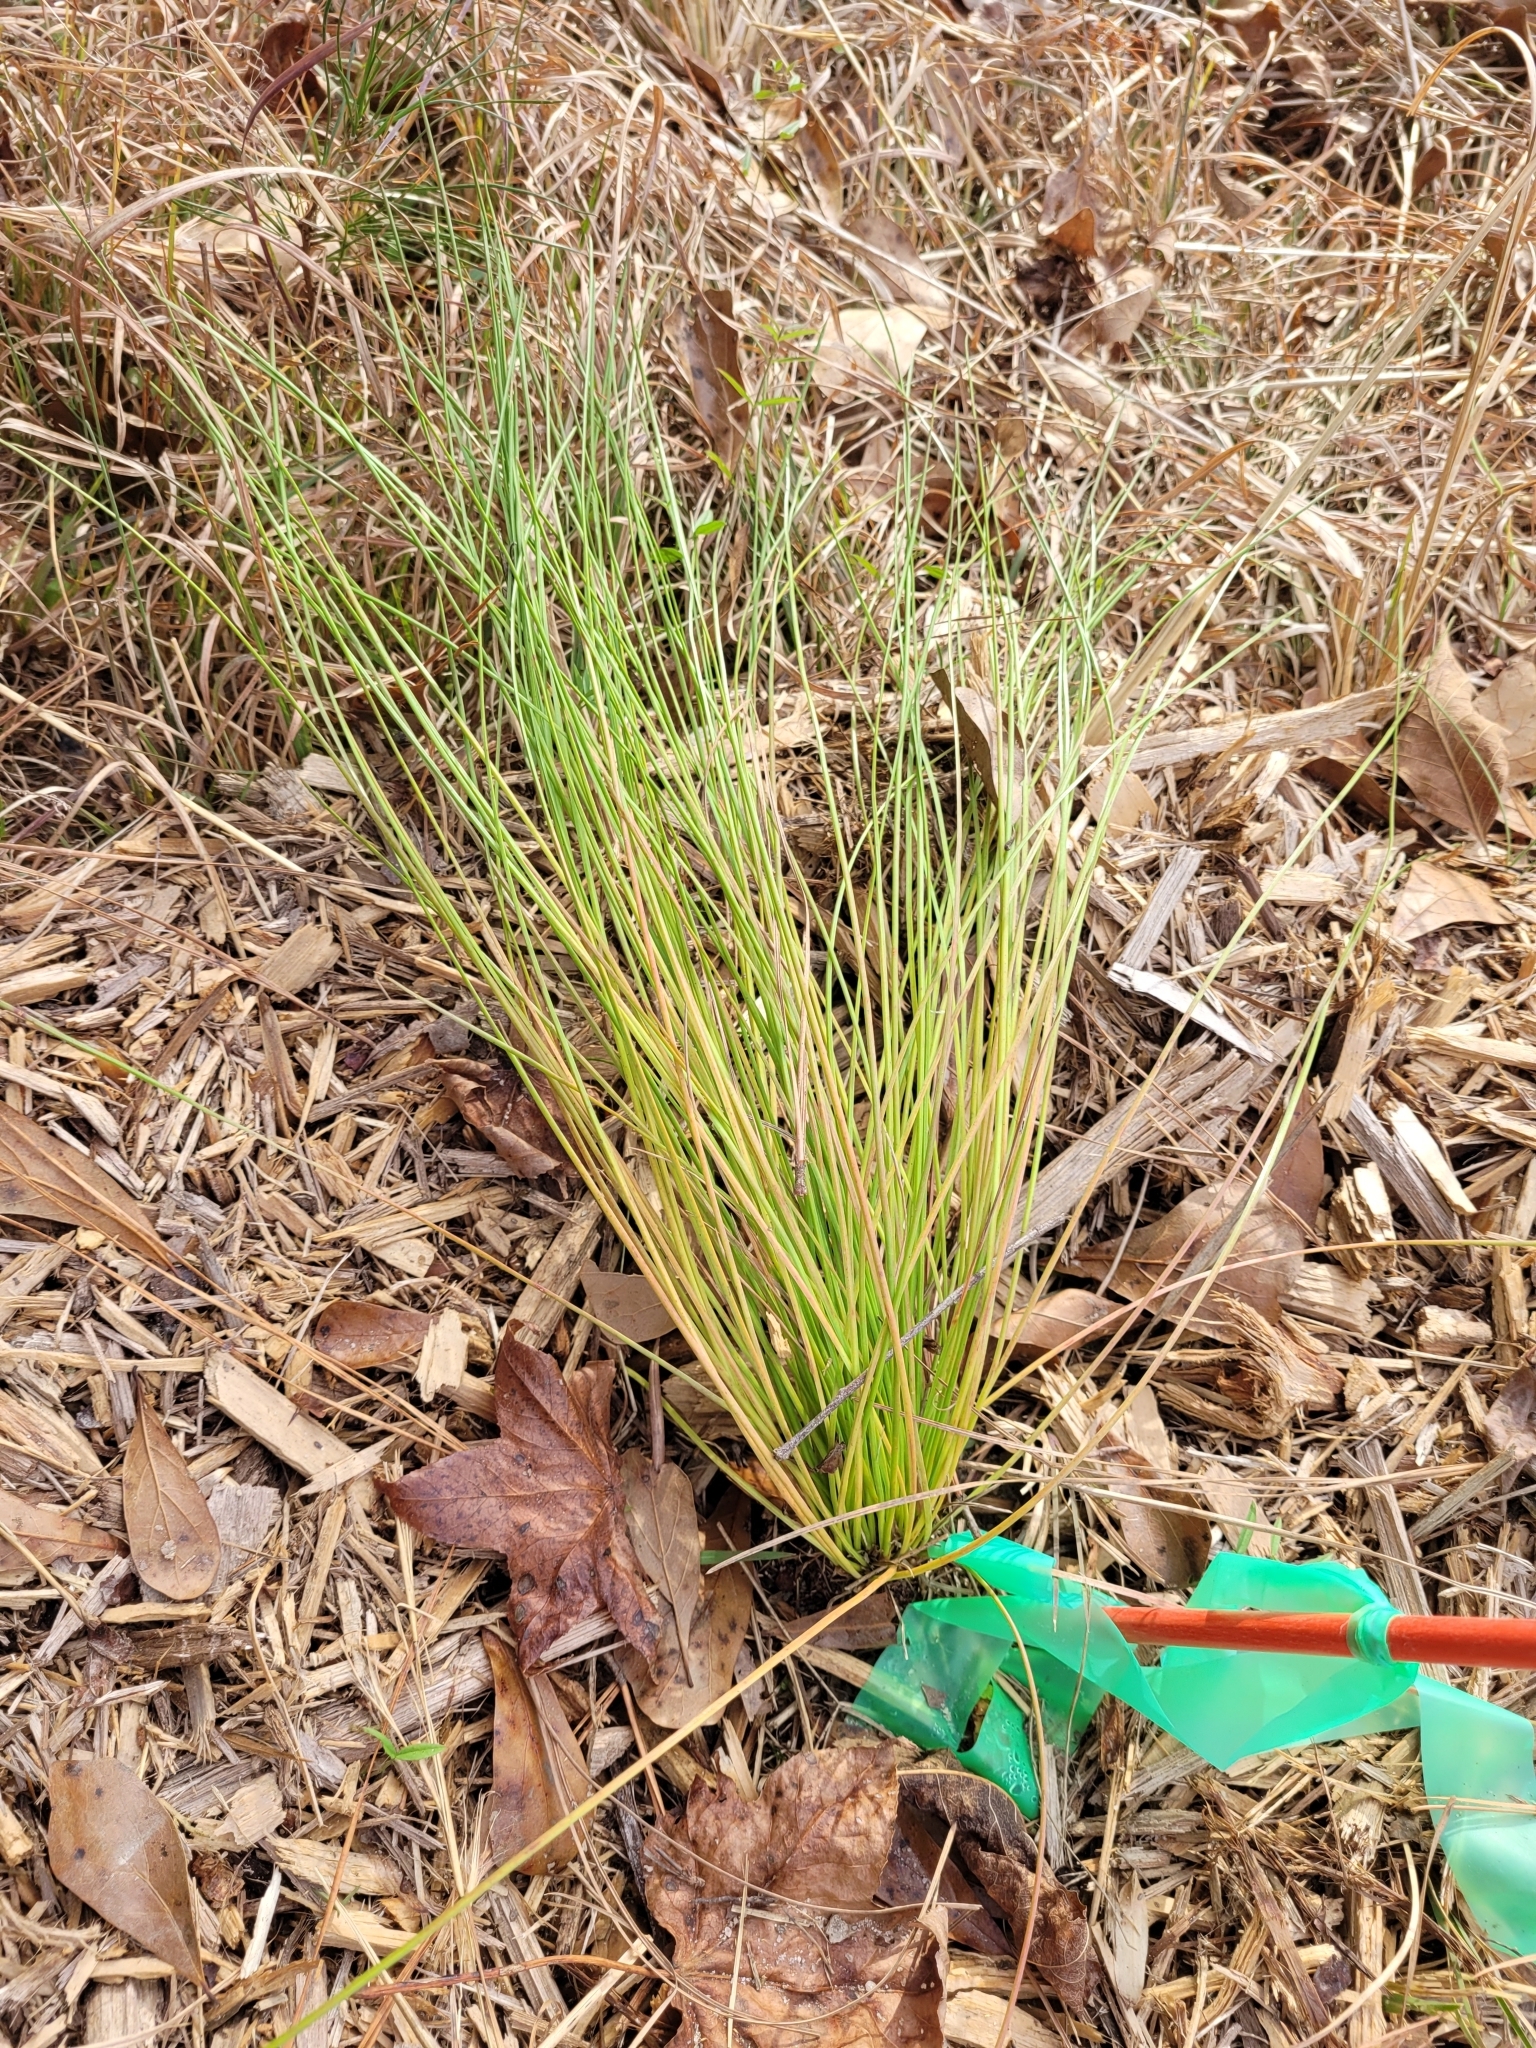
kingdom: Plantae
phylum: Tracheophyta
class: Pinopsida
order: Pinales
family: Pinaceae
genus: Pinus
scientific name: Pinus palustris
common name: Longleaf pine
